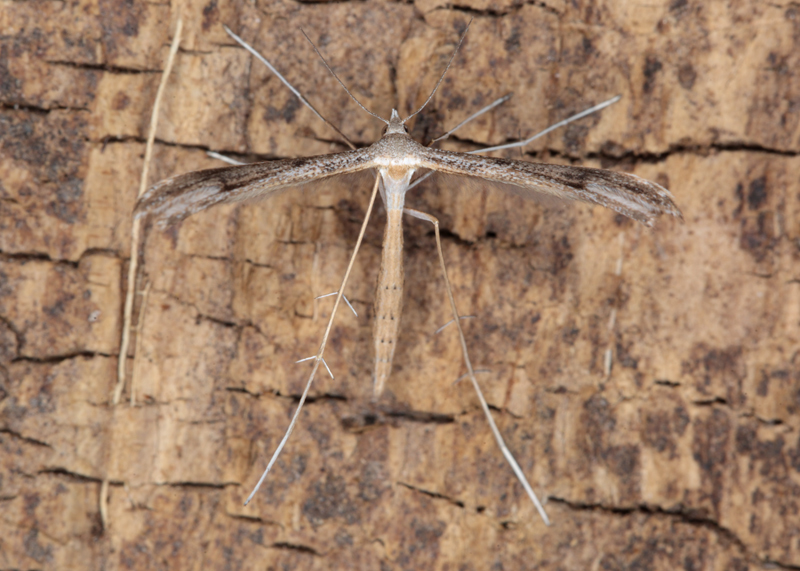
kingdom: Animalia
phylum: Arthropoda
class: Insecta
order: Lepidoptera
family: Pterophoridae
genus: Stenoptilia
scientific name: Stenoptilia zophodactylus
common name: Dowdy plume
